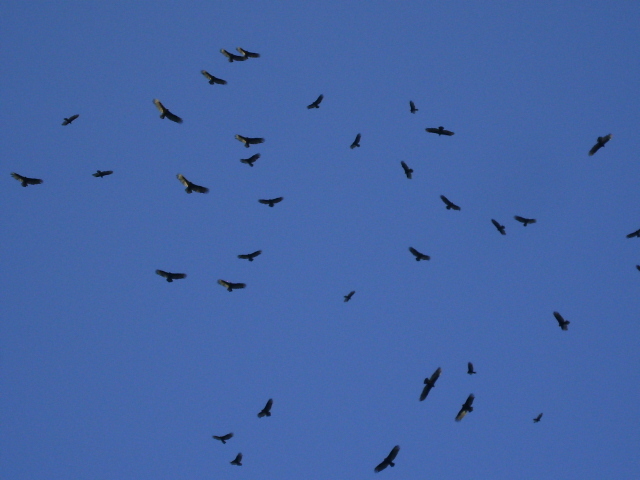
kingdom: Animalia
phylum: Chordata
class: Aves
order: Accipitriformes
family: Cathartidae
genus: Cathartes
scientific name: Cathartes aura
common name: Turkey vulture
